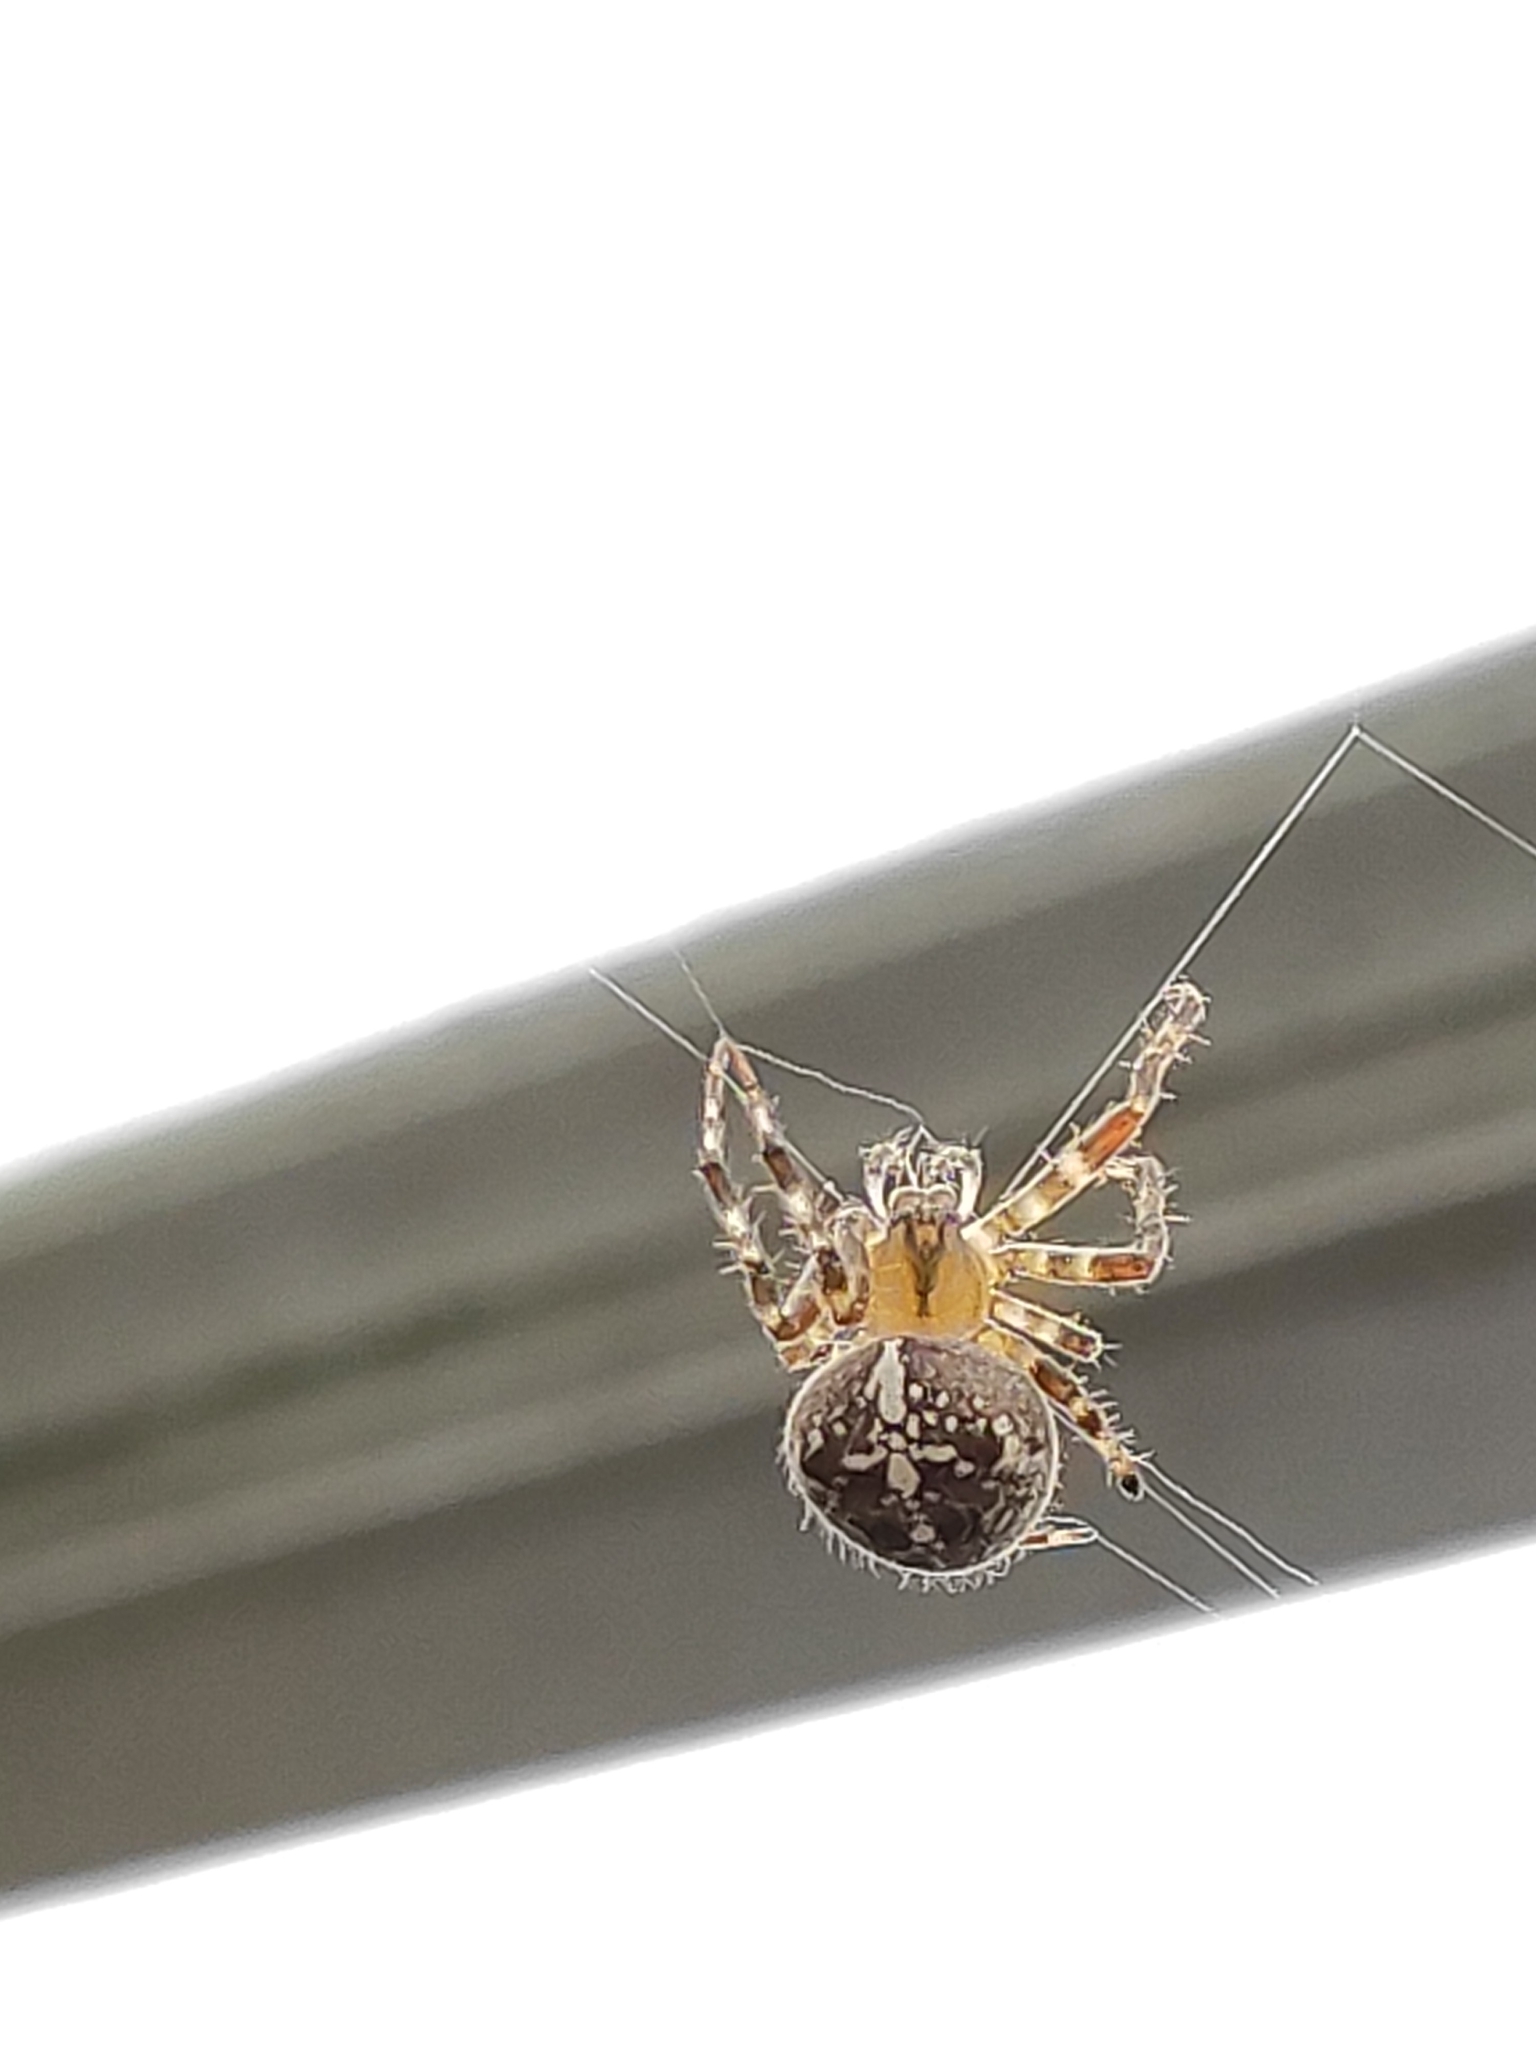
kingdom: Animalia
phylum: Arthropoda
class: Arachnida
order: Araneae
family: Araneidae
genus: Araneus
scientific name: Araneus diadematus
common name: Cross orbweaver
